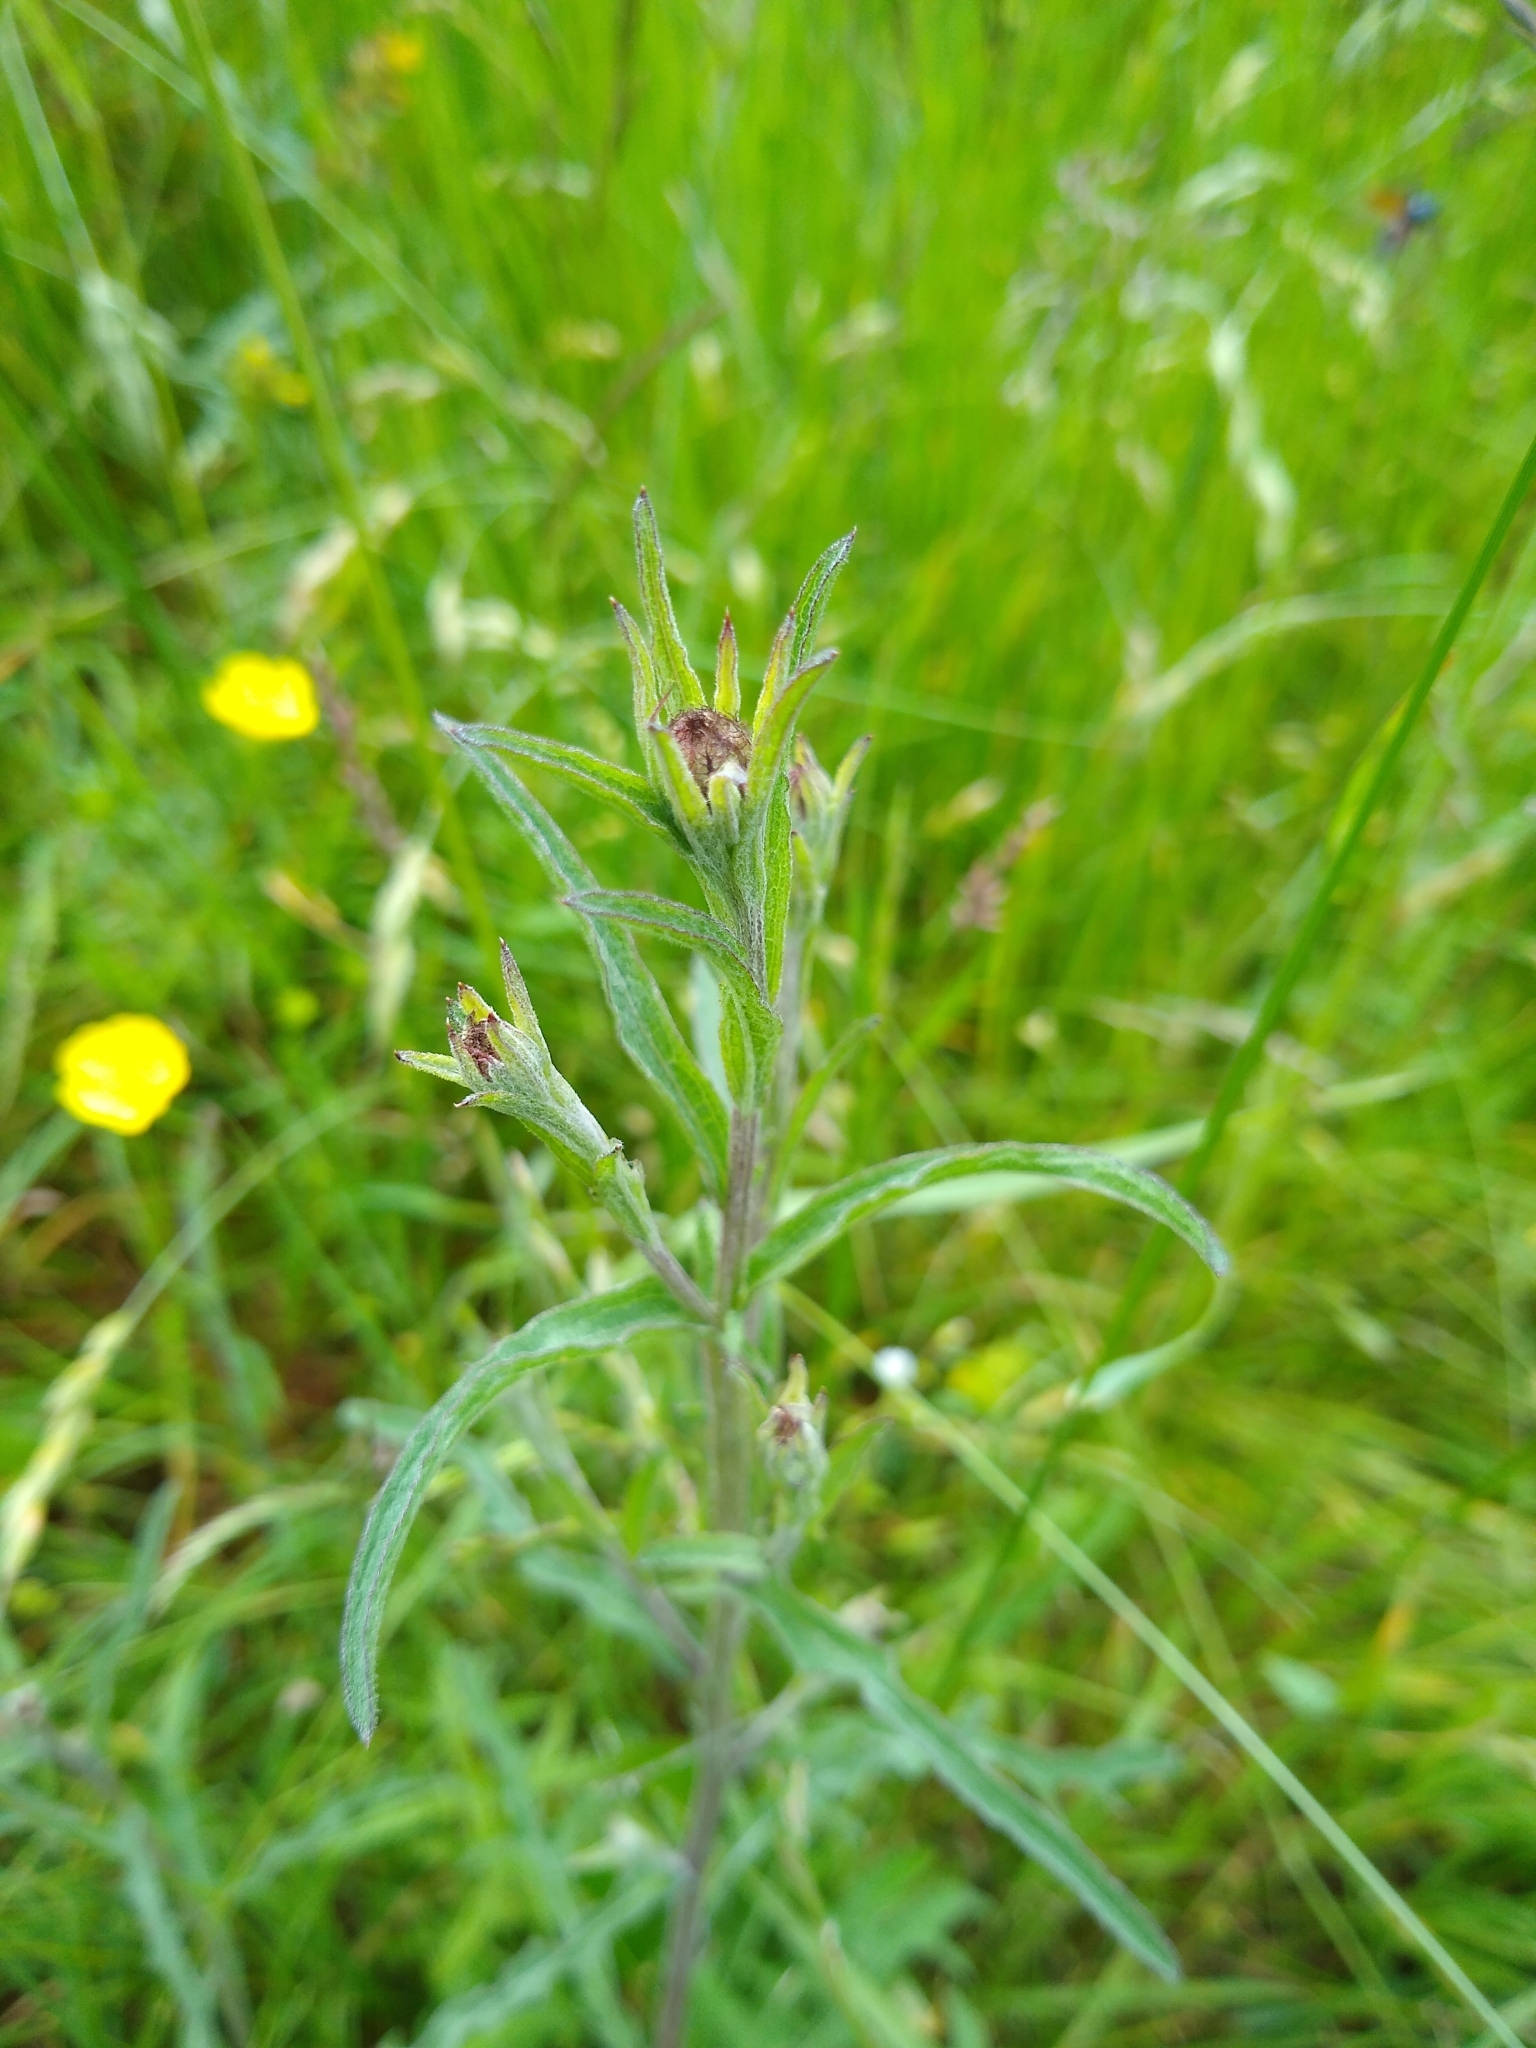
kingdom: Plantae
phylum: Tracheophyta
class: Magnoliopsida
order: Asterales
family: Asteraceae
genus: Centaurea
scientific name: Centaurea nigra
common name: Lesser knapweed
